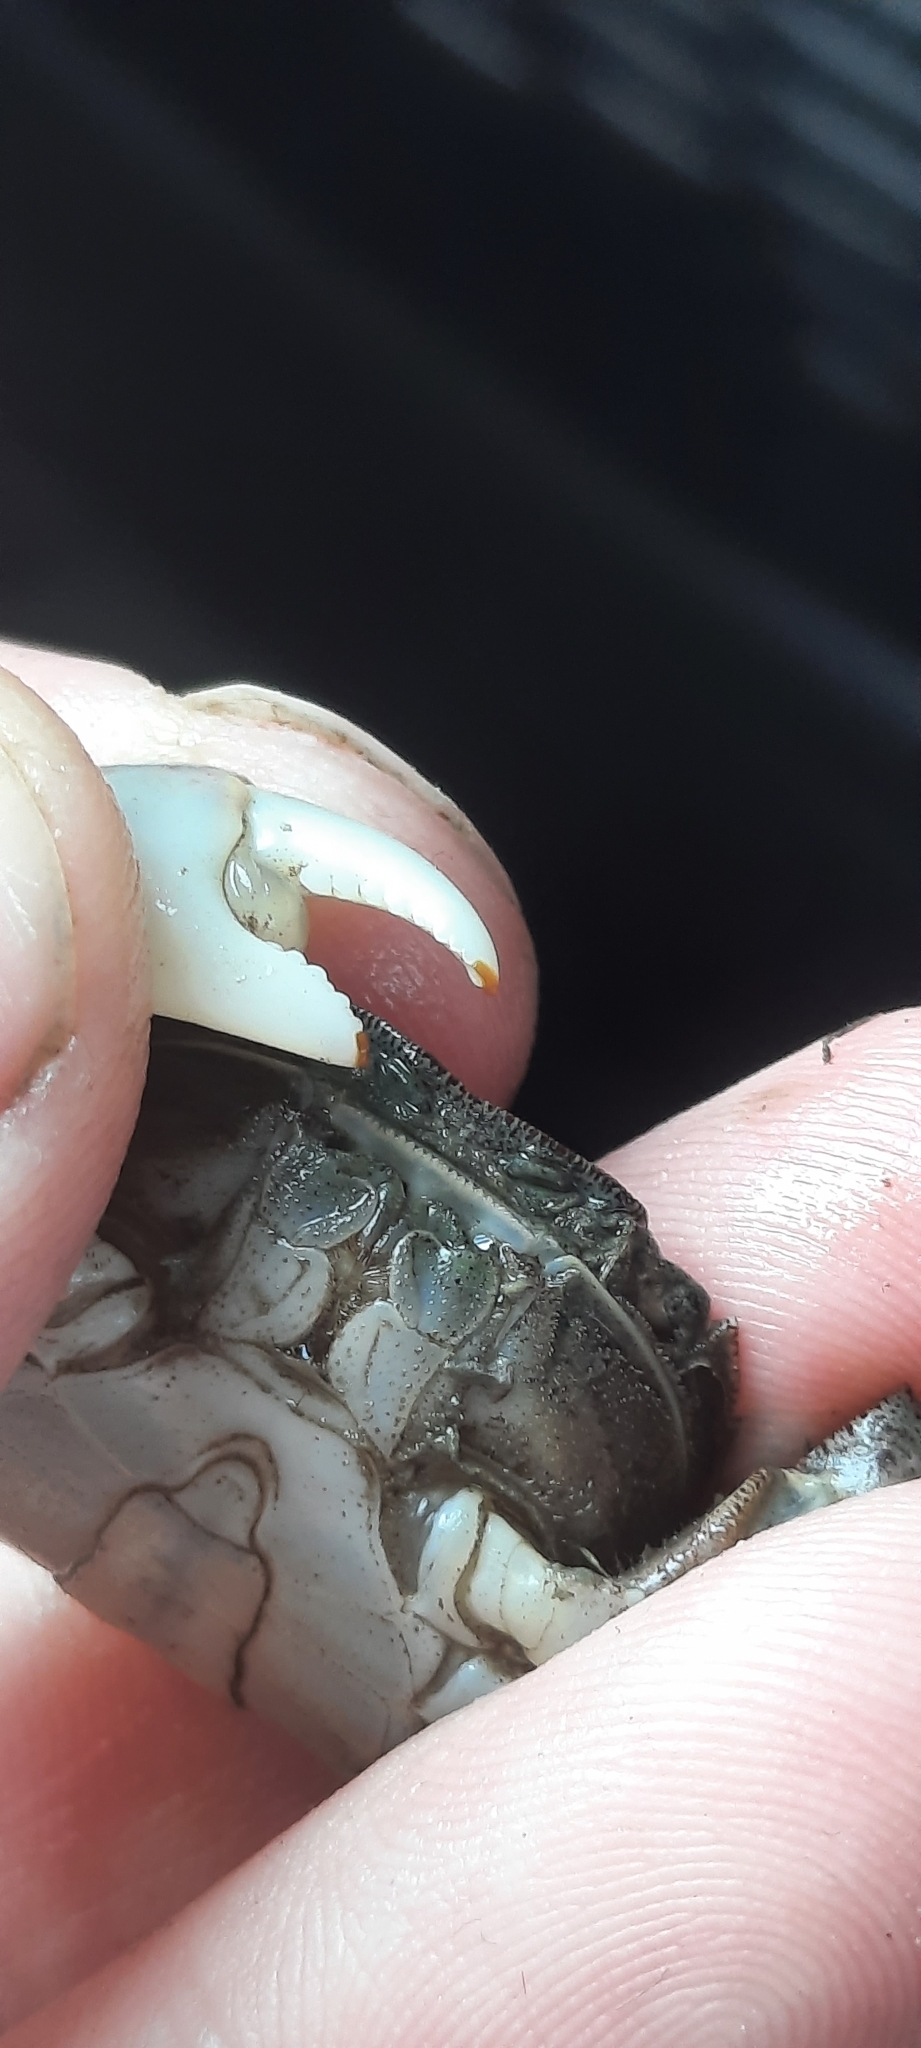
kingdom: Animalia
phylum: Arthropoda
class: Malacostraca
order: Decapoda
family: Varunidae
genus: Hemigrapsus
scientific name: Hemigrapsus sanguineus
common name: Asian shore crab
